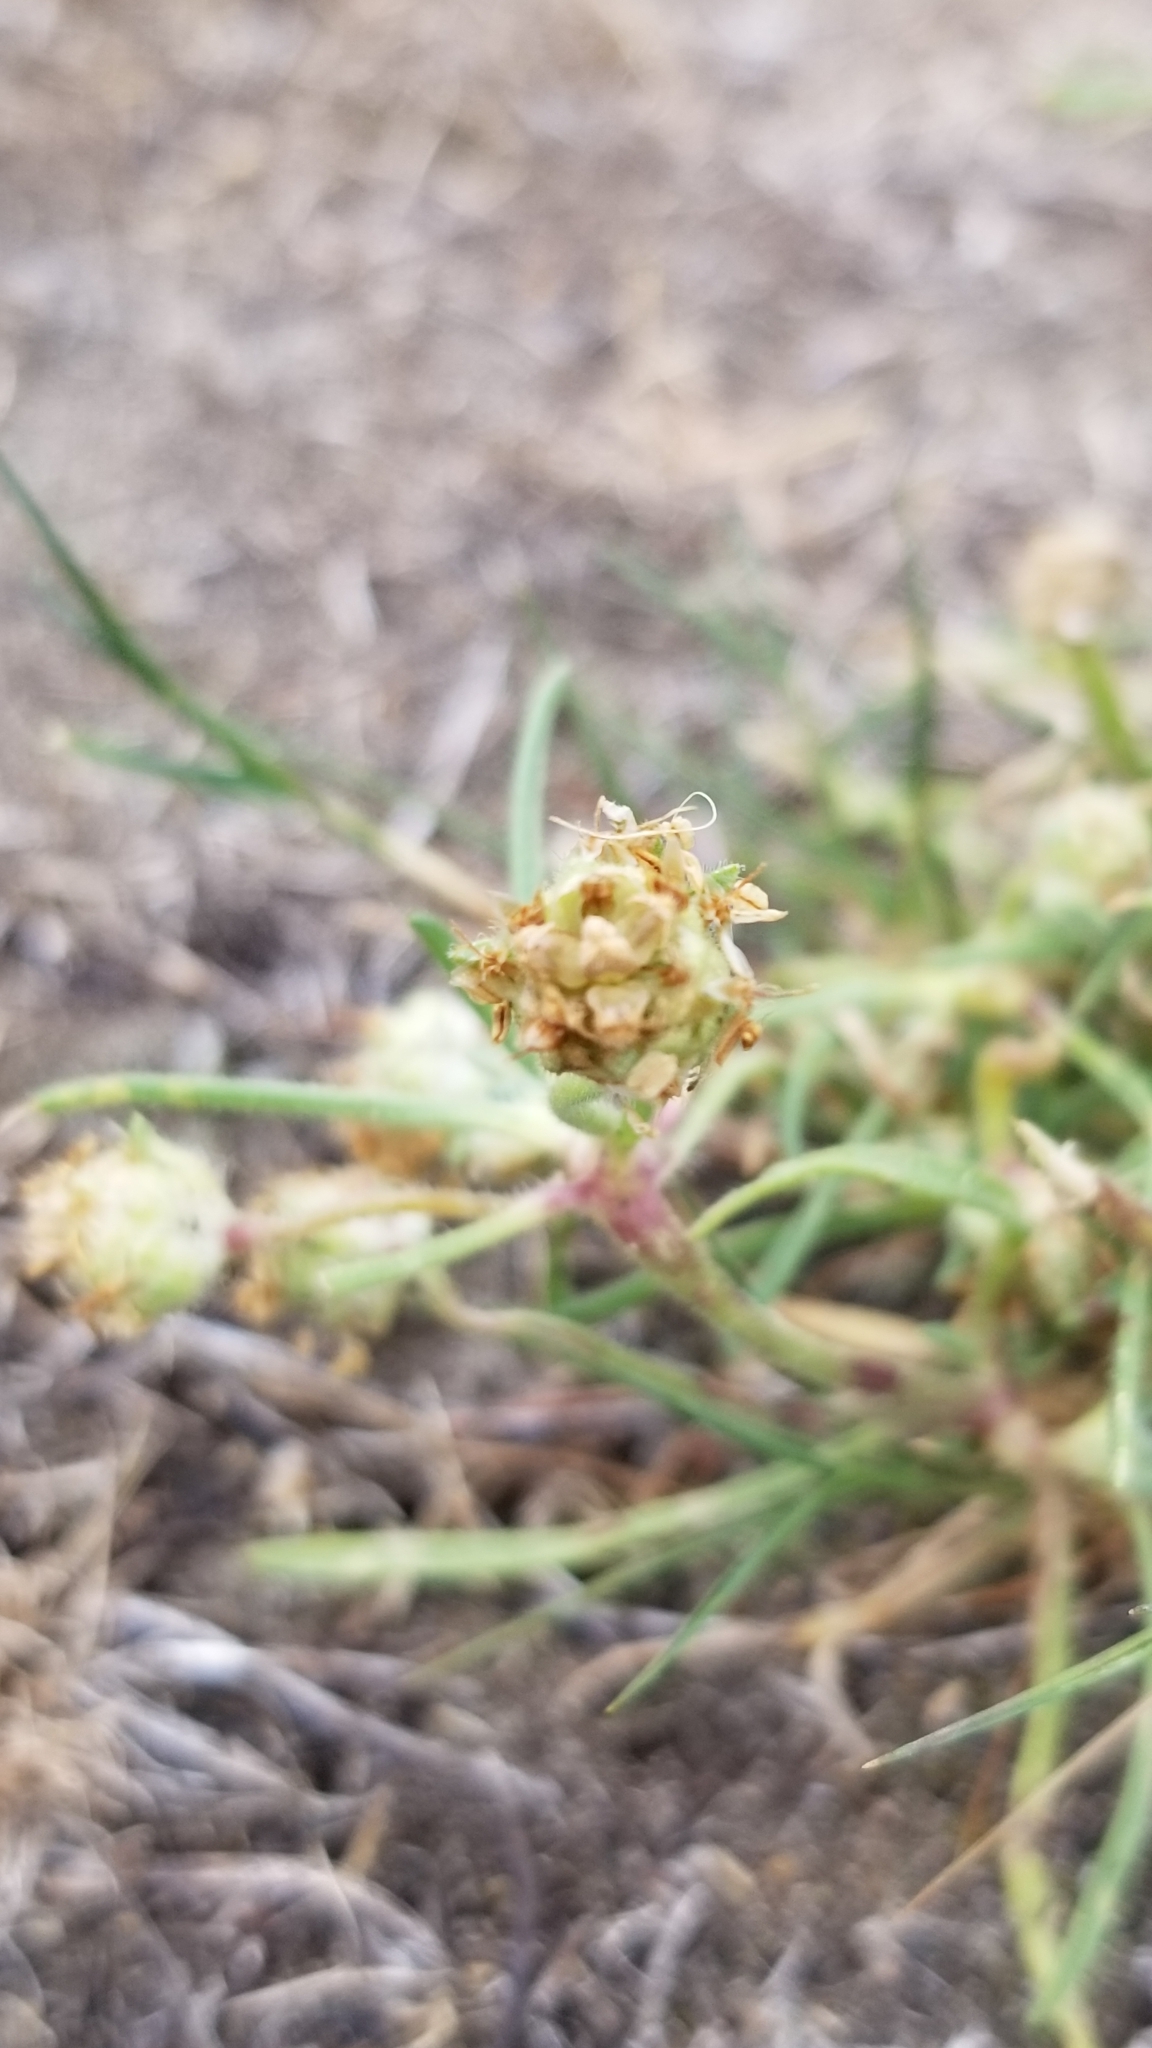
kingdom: Plantae
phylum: Tracheophyta
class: Magnoliopsida
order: Lamiales
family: Plantaginaceae
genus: Plantago
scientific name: Plantago arenaria
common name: Branched plantain
